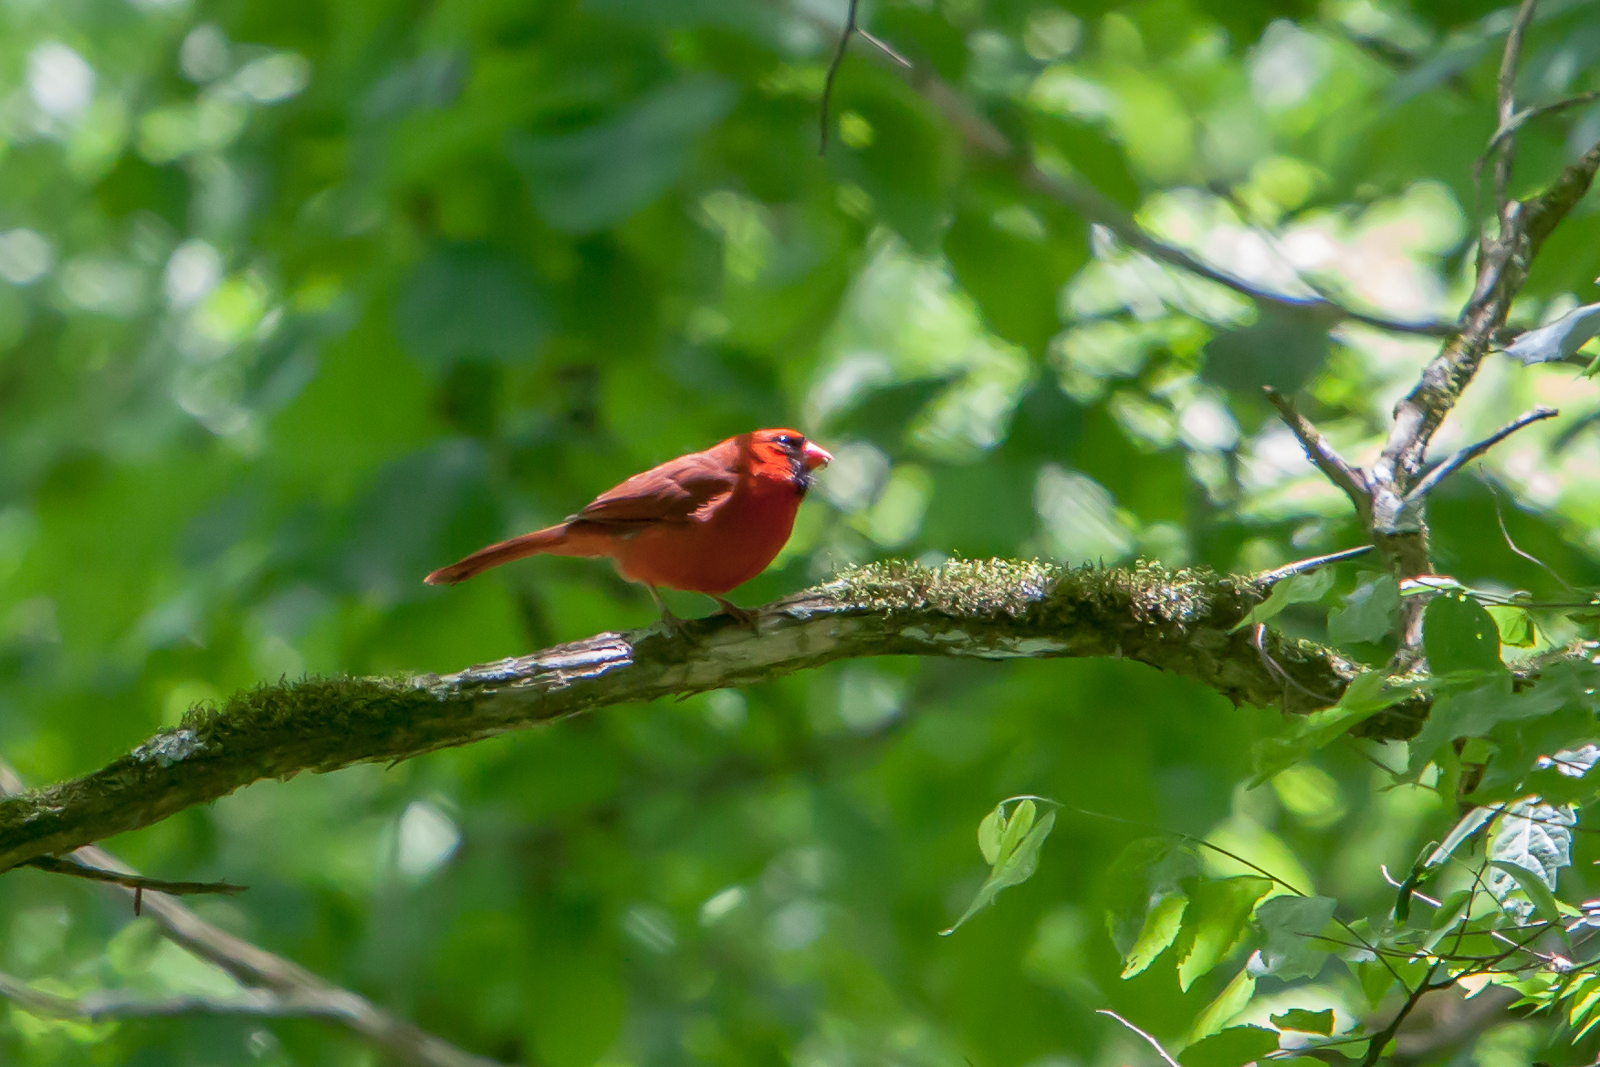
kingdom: Animalia
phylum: Chordata
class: Aves
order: Passeriformes
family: Cardinalidae
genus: Cardinalis
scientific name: Cardinalis cardinalis
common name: Northern cardinal
